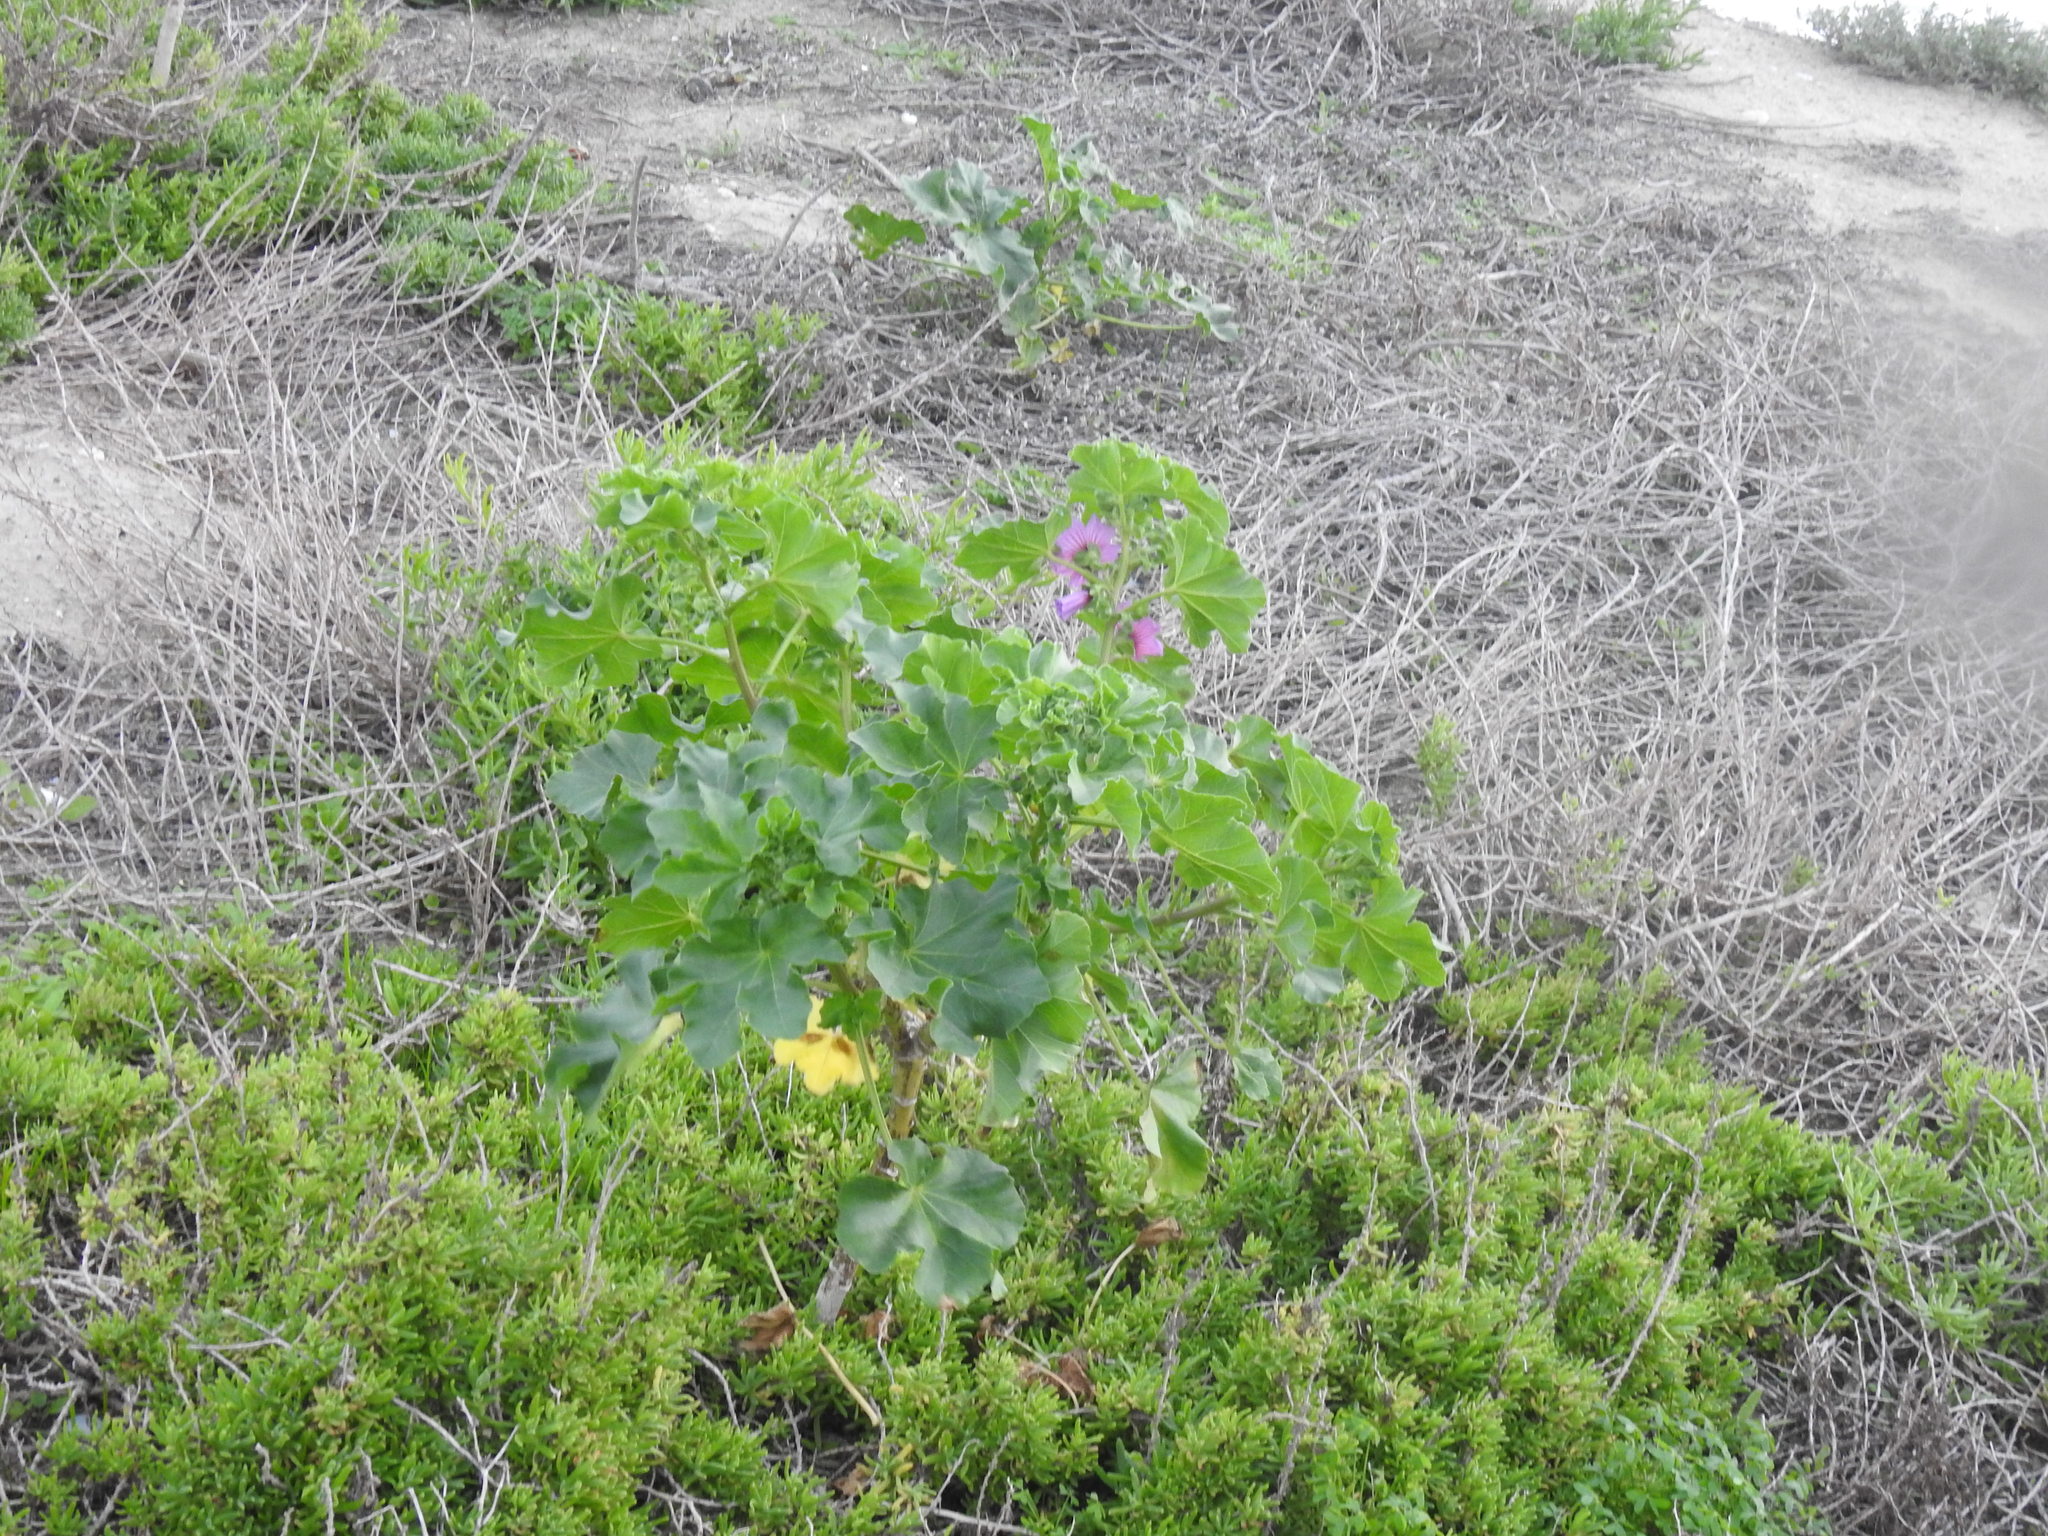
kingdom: Plantae
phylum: Tracheophyta
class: Magnoliopsida
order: Malvales
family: Malvaceae
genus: Malva
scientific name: Malva arborea
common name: Tree mallow
